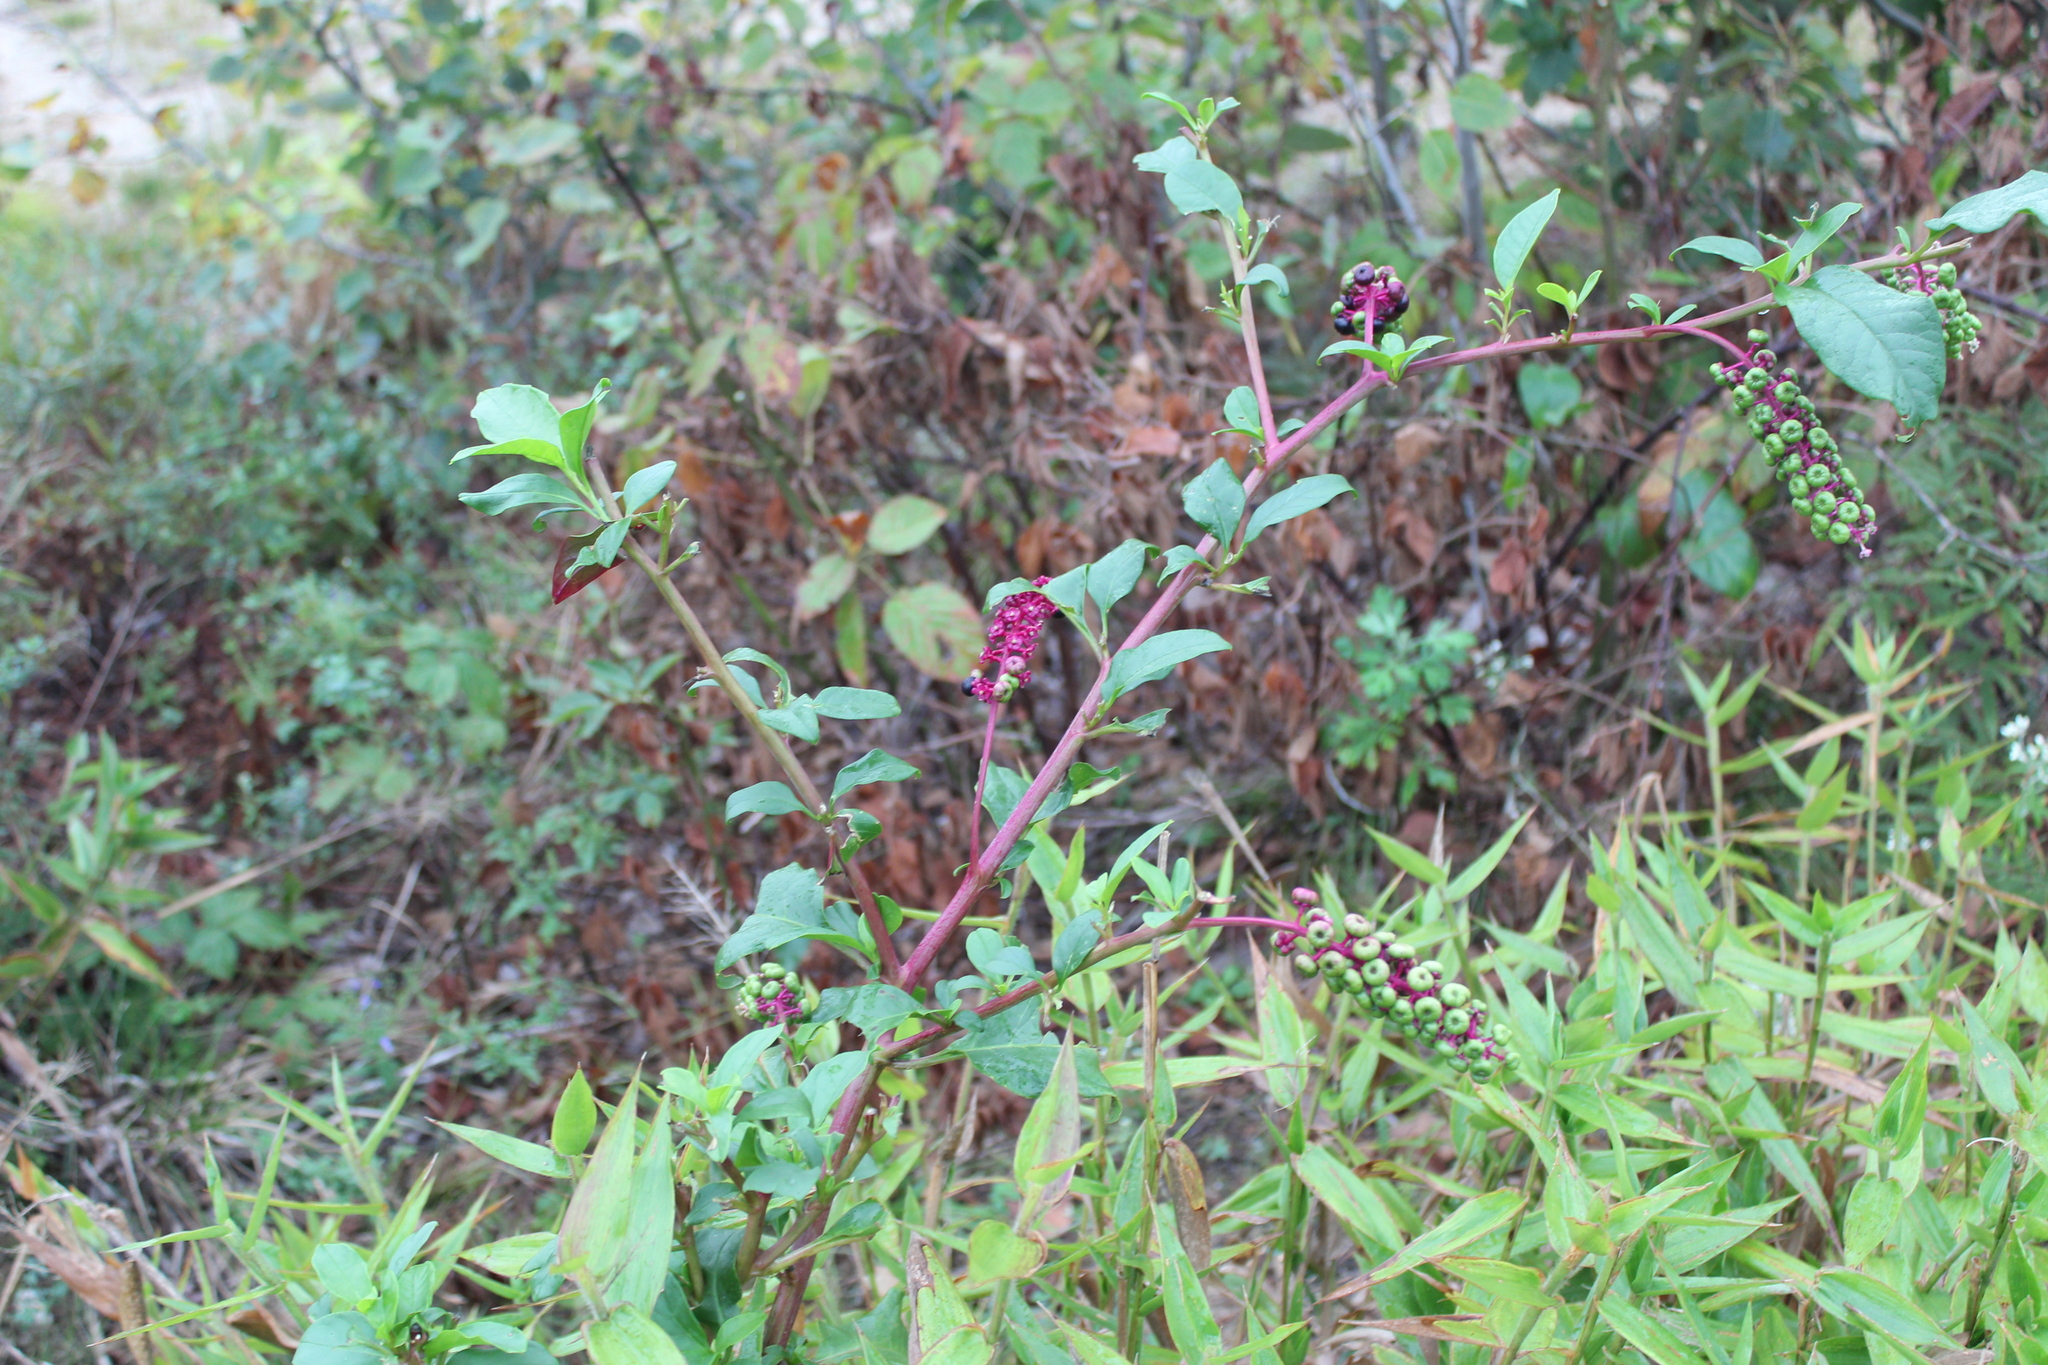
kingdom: Plantae
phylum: Tracheophyta
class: Magnoliopsida
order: Caryophyllales
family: Phytolaccaceae
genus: Phytolacca
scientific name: Phytolacca americana
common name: American pokeweed
